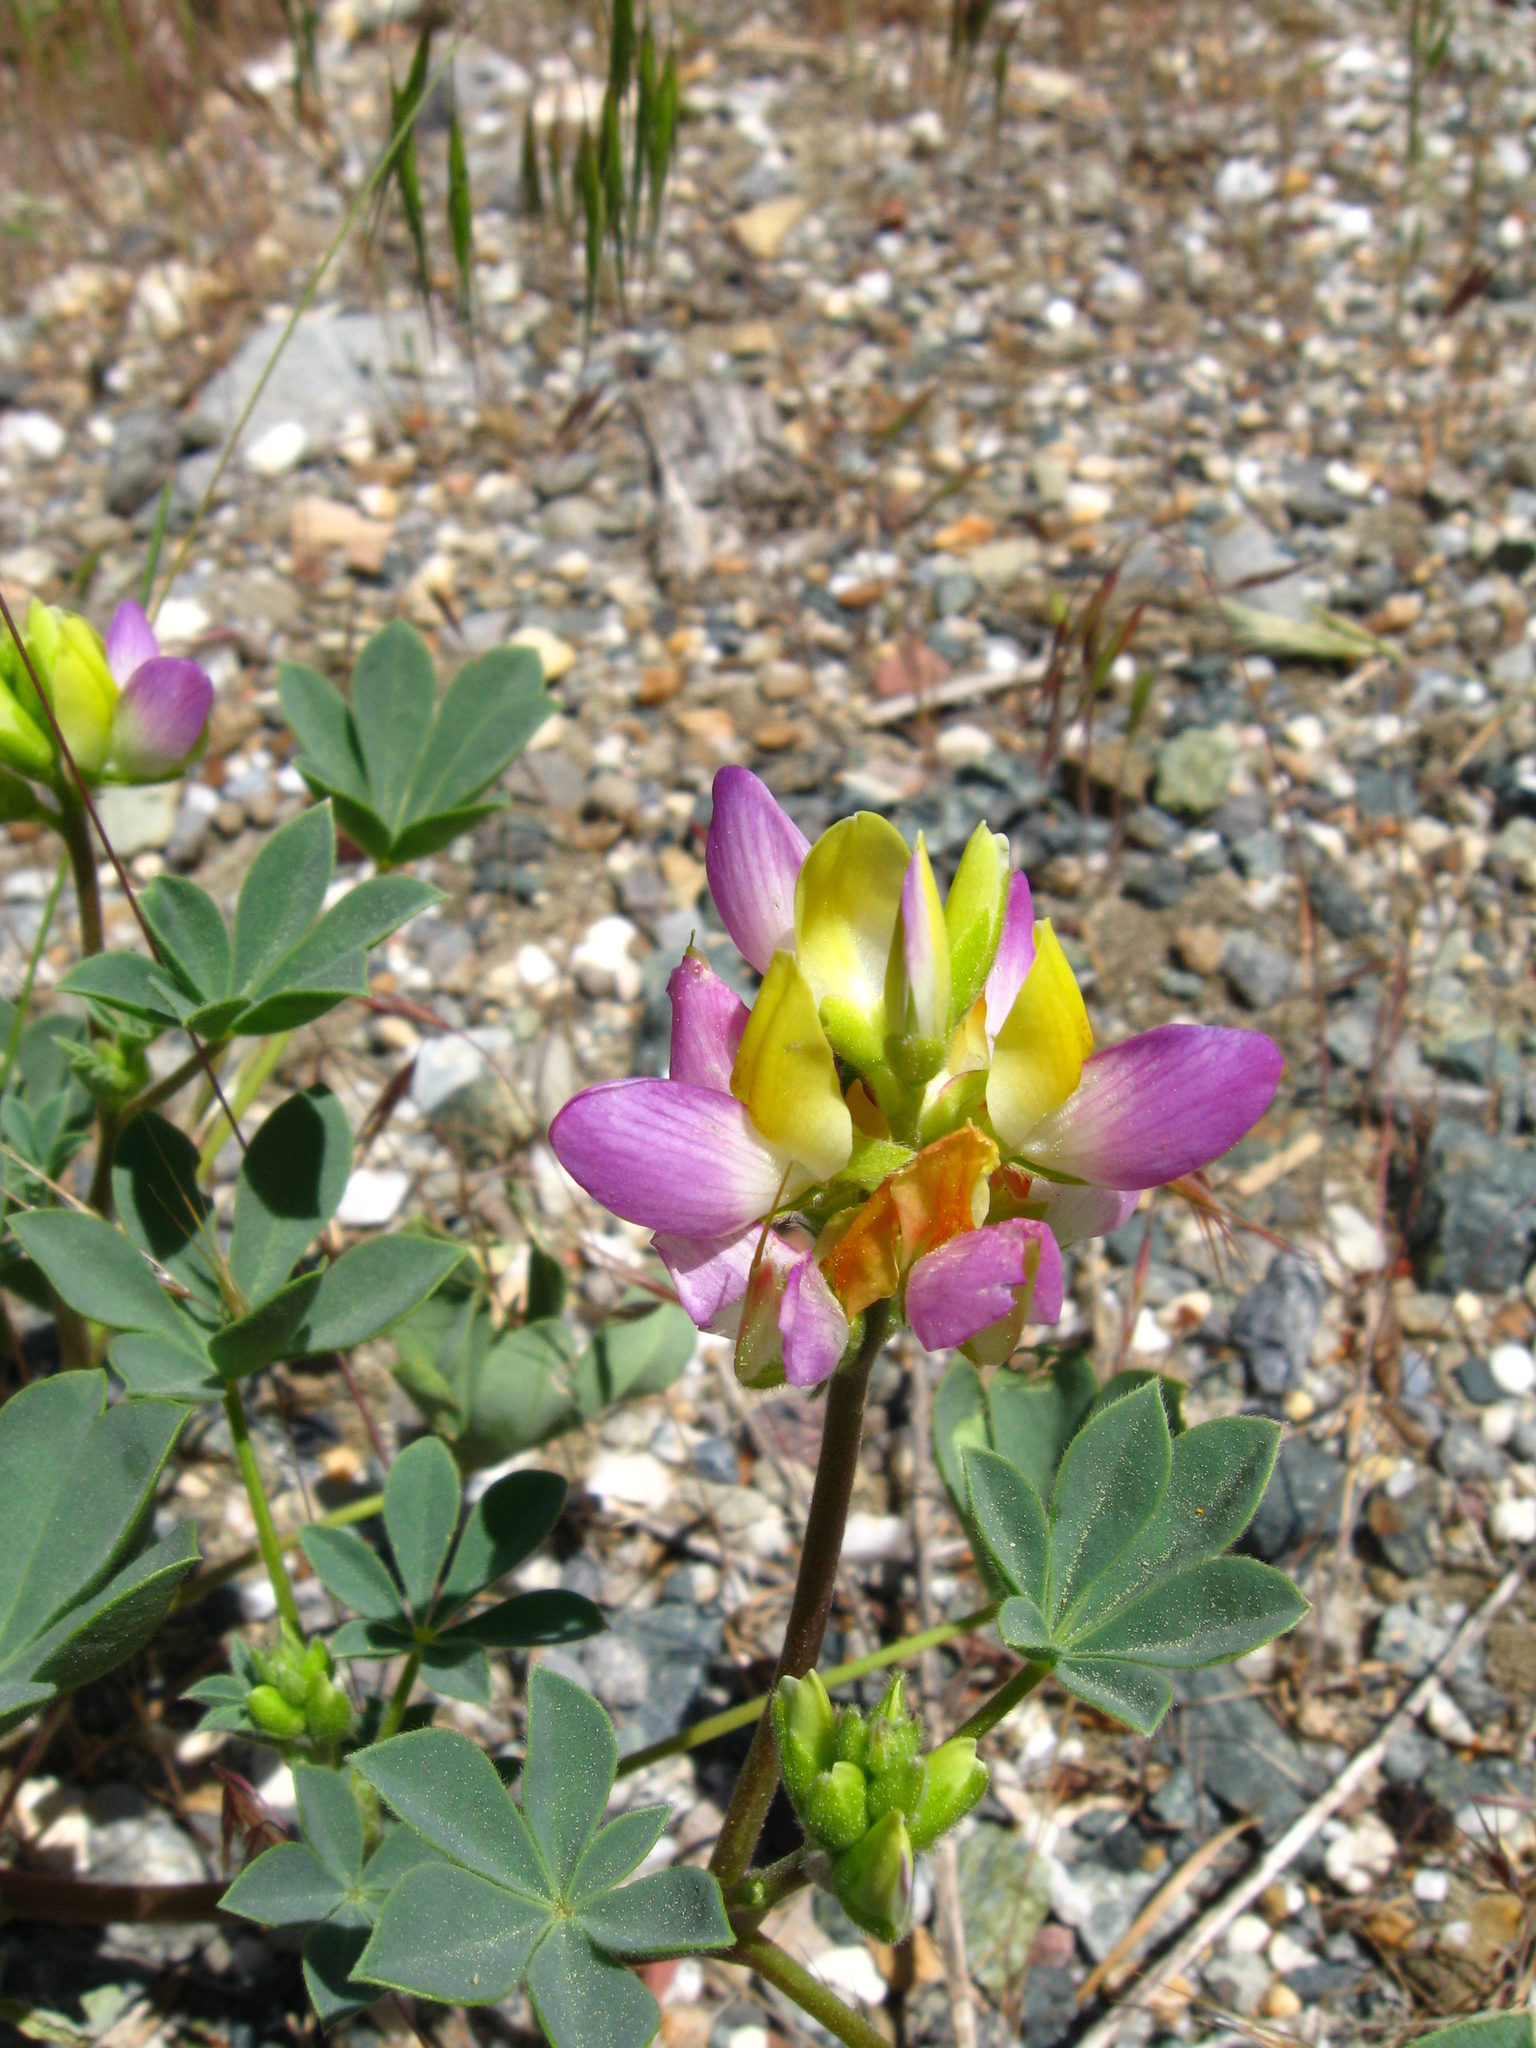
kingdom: Plantae
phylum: Tracheophyta
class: Magnoliopsida
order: Fabales
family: Fabaceae
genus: Lupinus
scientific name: Lupinus stiversii
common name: Harlequin lupine
